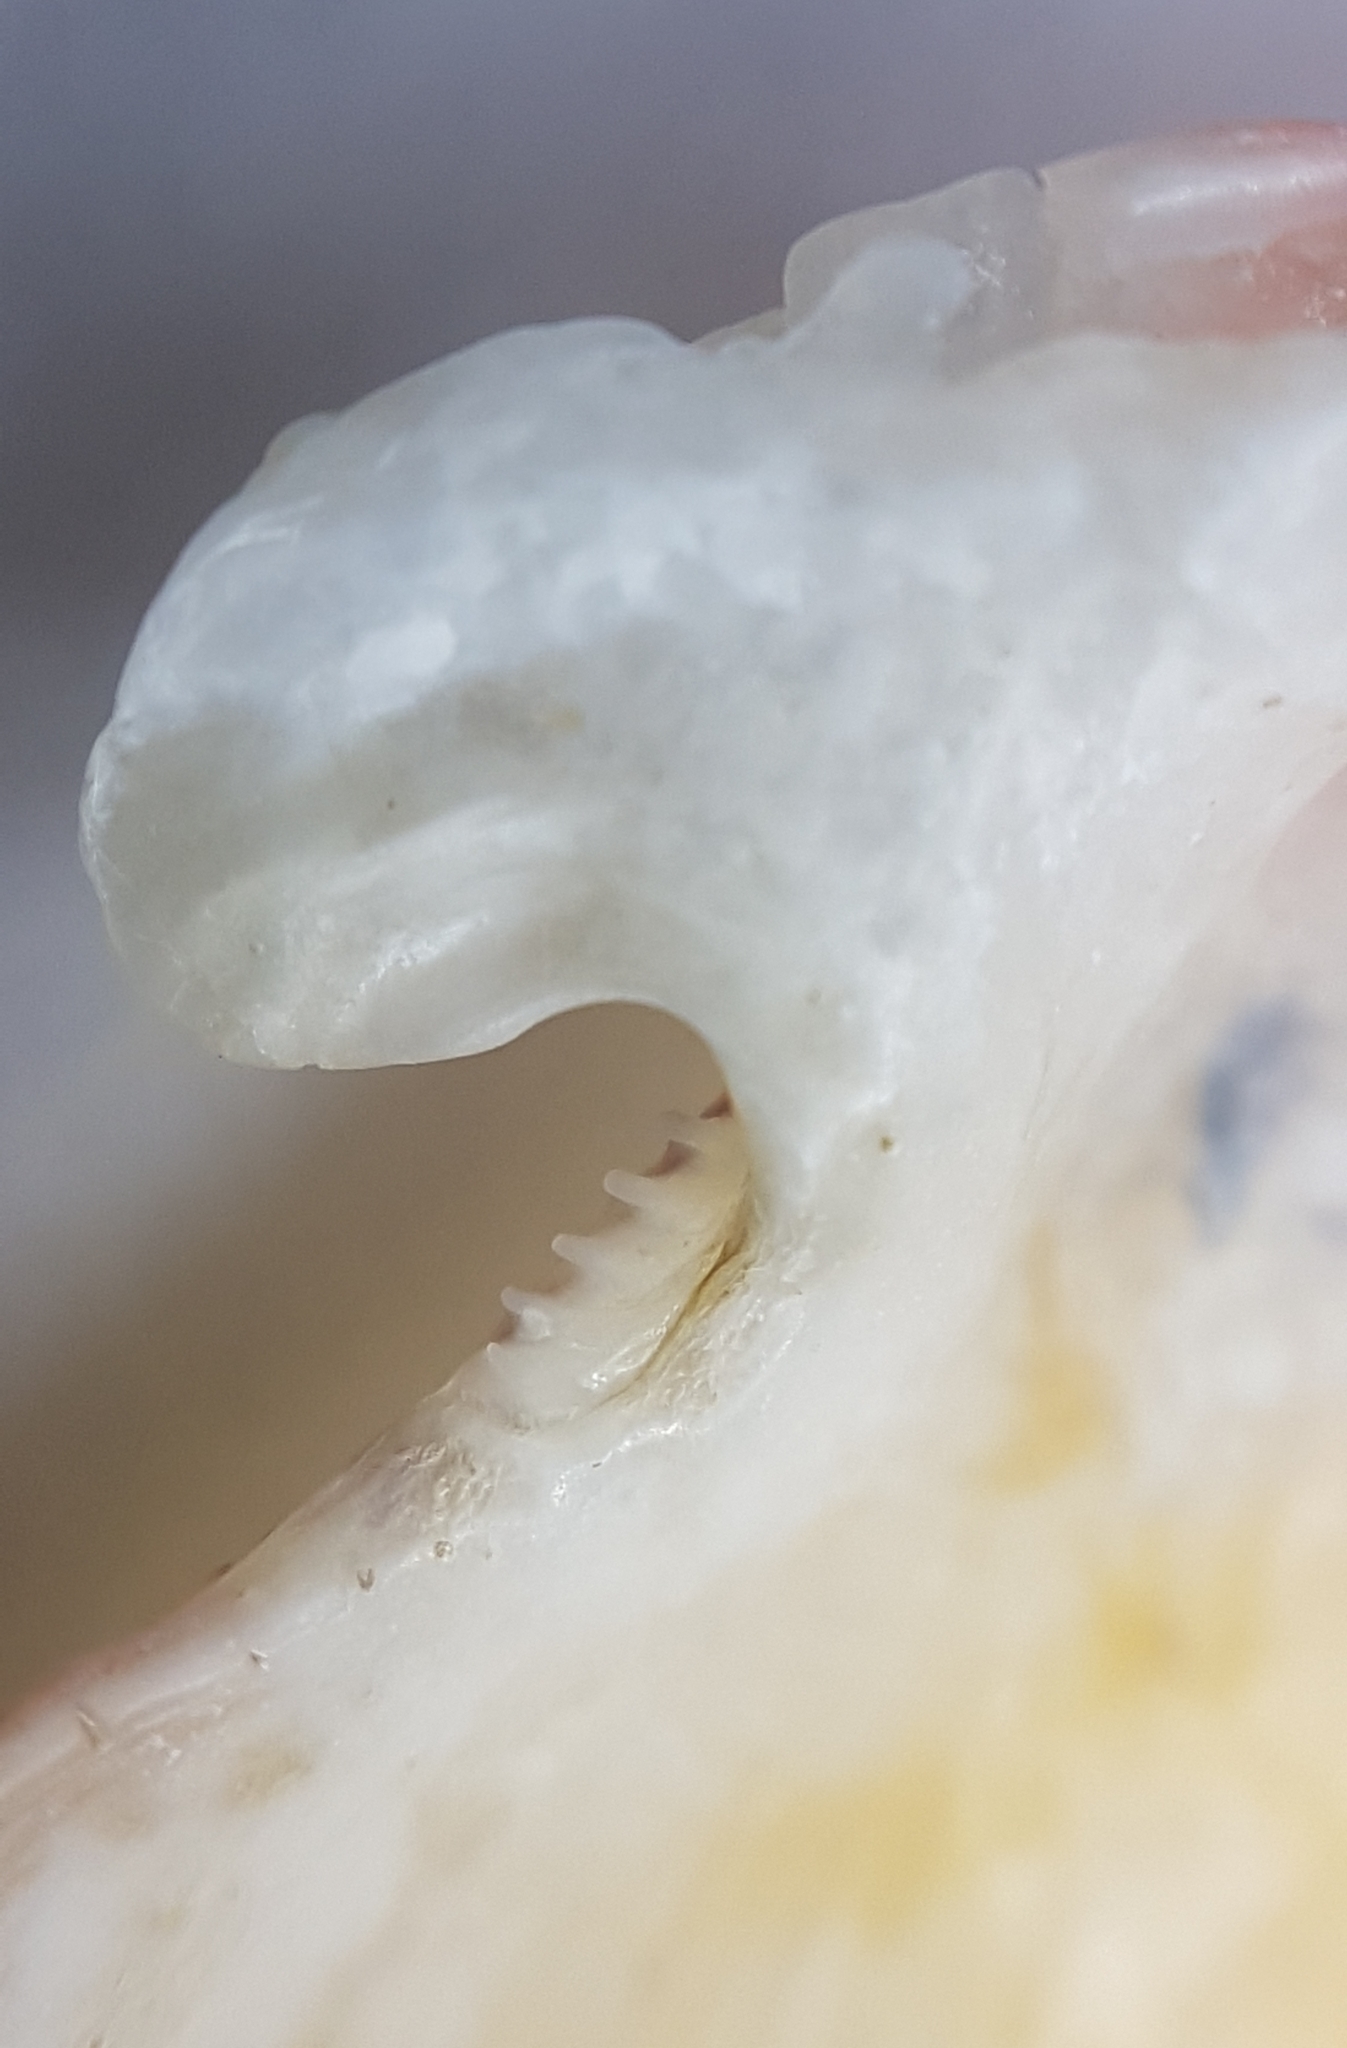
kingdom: Animalia
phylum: Mollusca
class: Bivalvia
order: Pectinida
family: Pectinidae
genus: Talochlamys
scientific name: Talochlamys multistriata
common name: Tinted scallop
